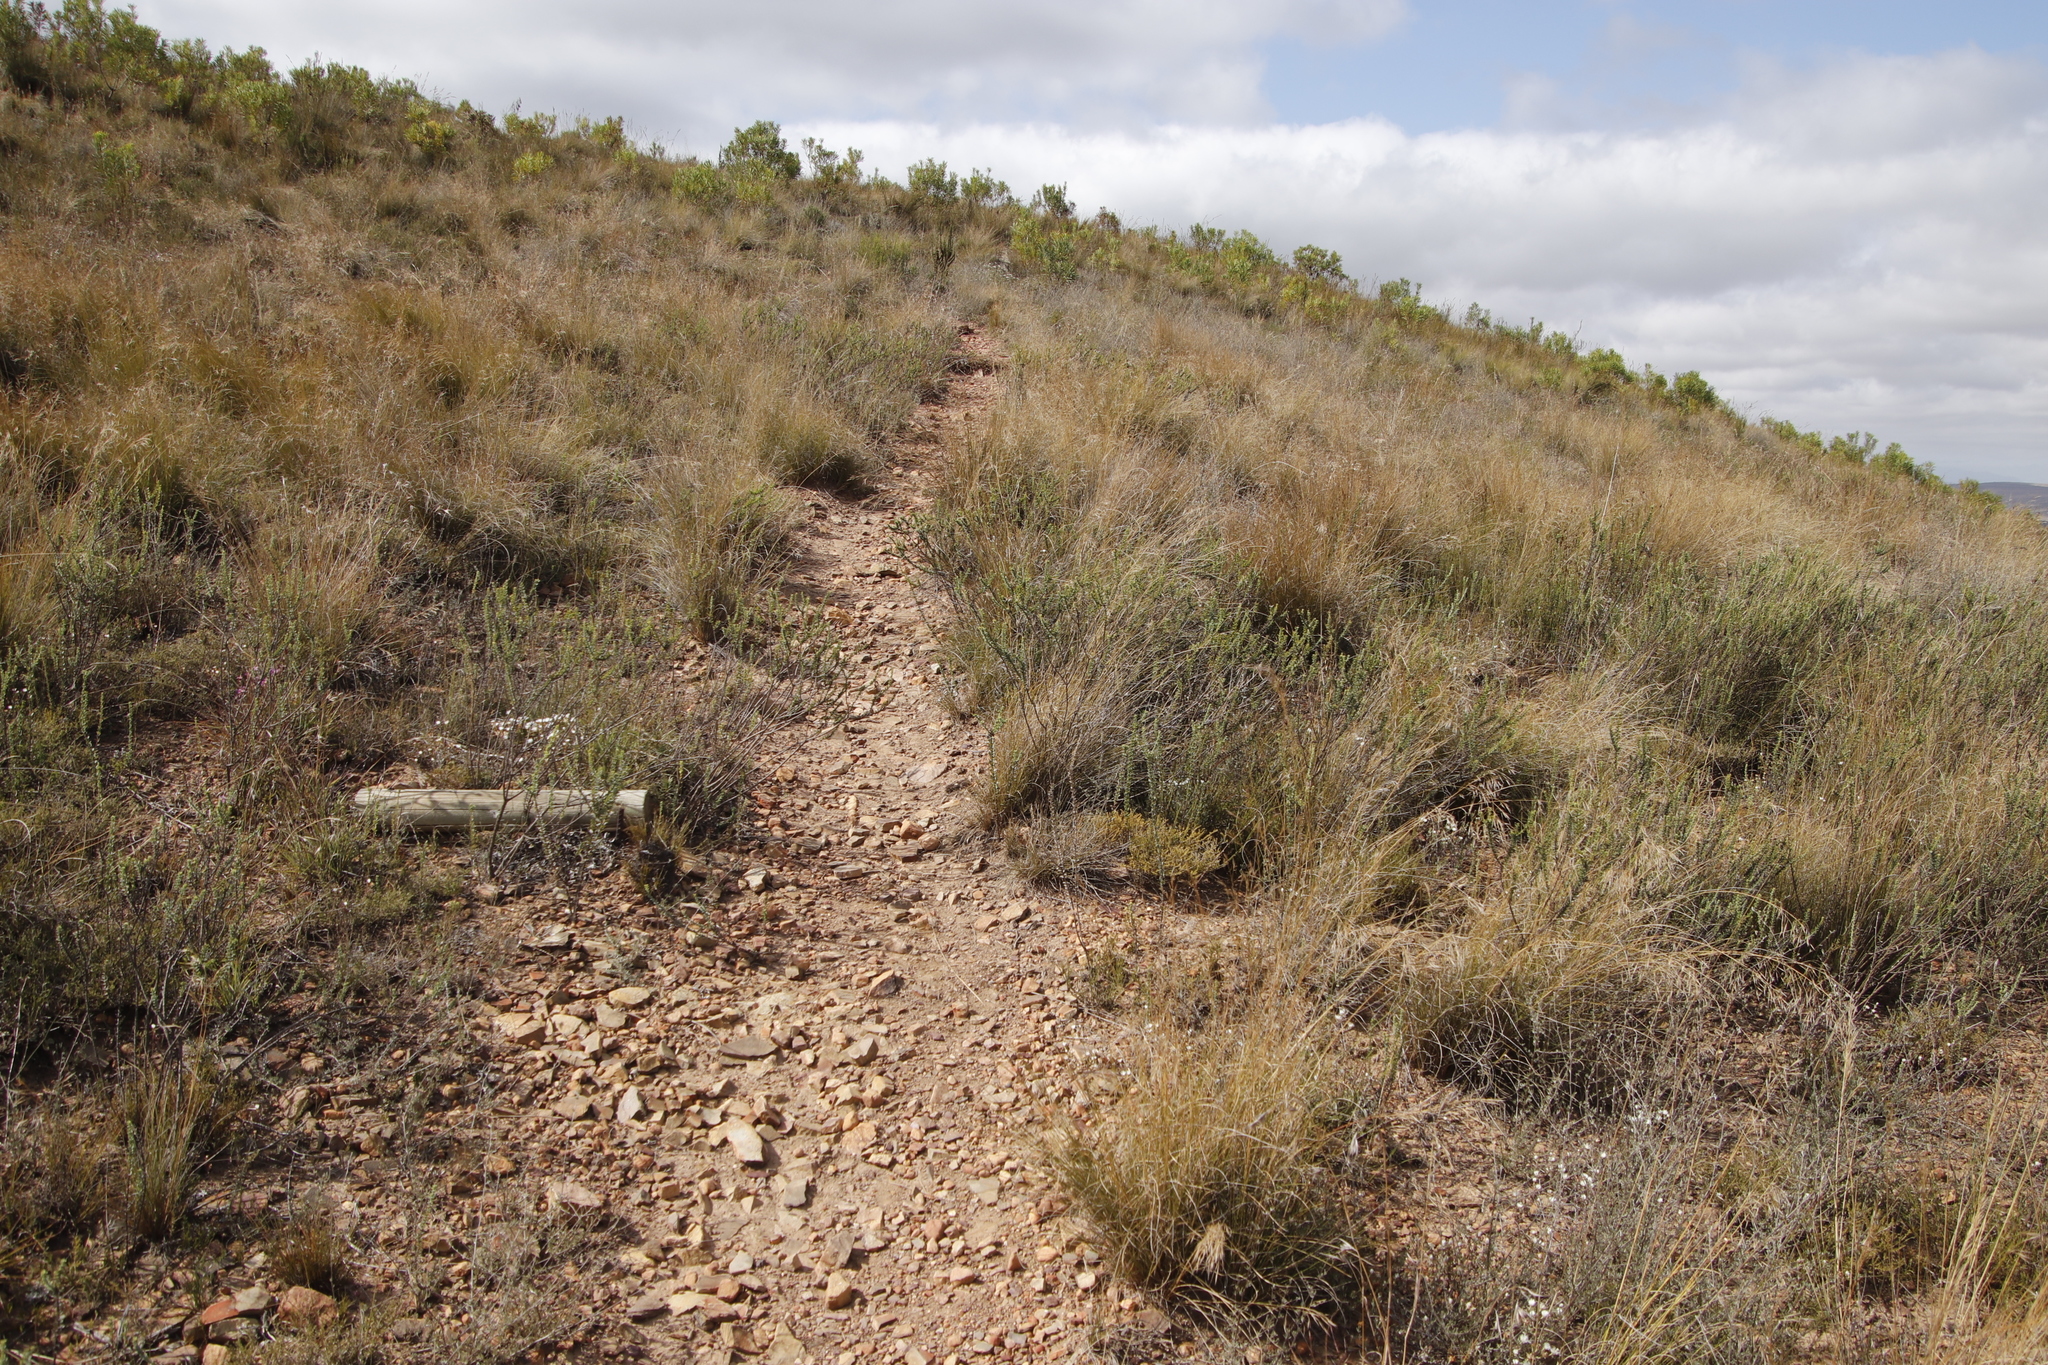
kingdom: Plantae
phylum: Tracheophyta
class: Magnoliopsida
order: Asterales
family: Asteraceae
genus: Osteospermum
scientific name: Osteospermum imbricatum
